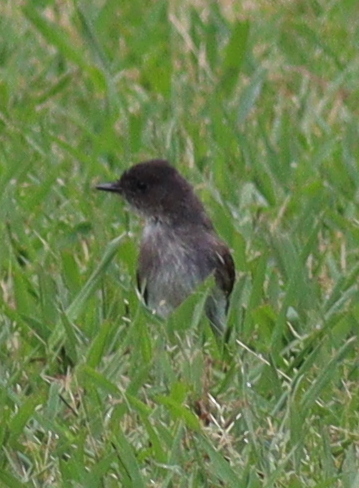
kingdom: Animalia
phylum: Chordata
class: Aves
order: Passeriformes
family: Tyrannidae
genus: Sayornis
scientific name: Sayornis phoebe
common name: Eastern phoebe
